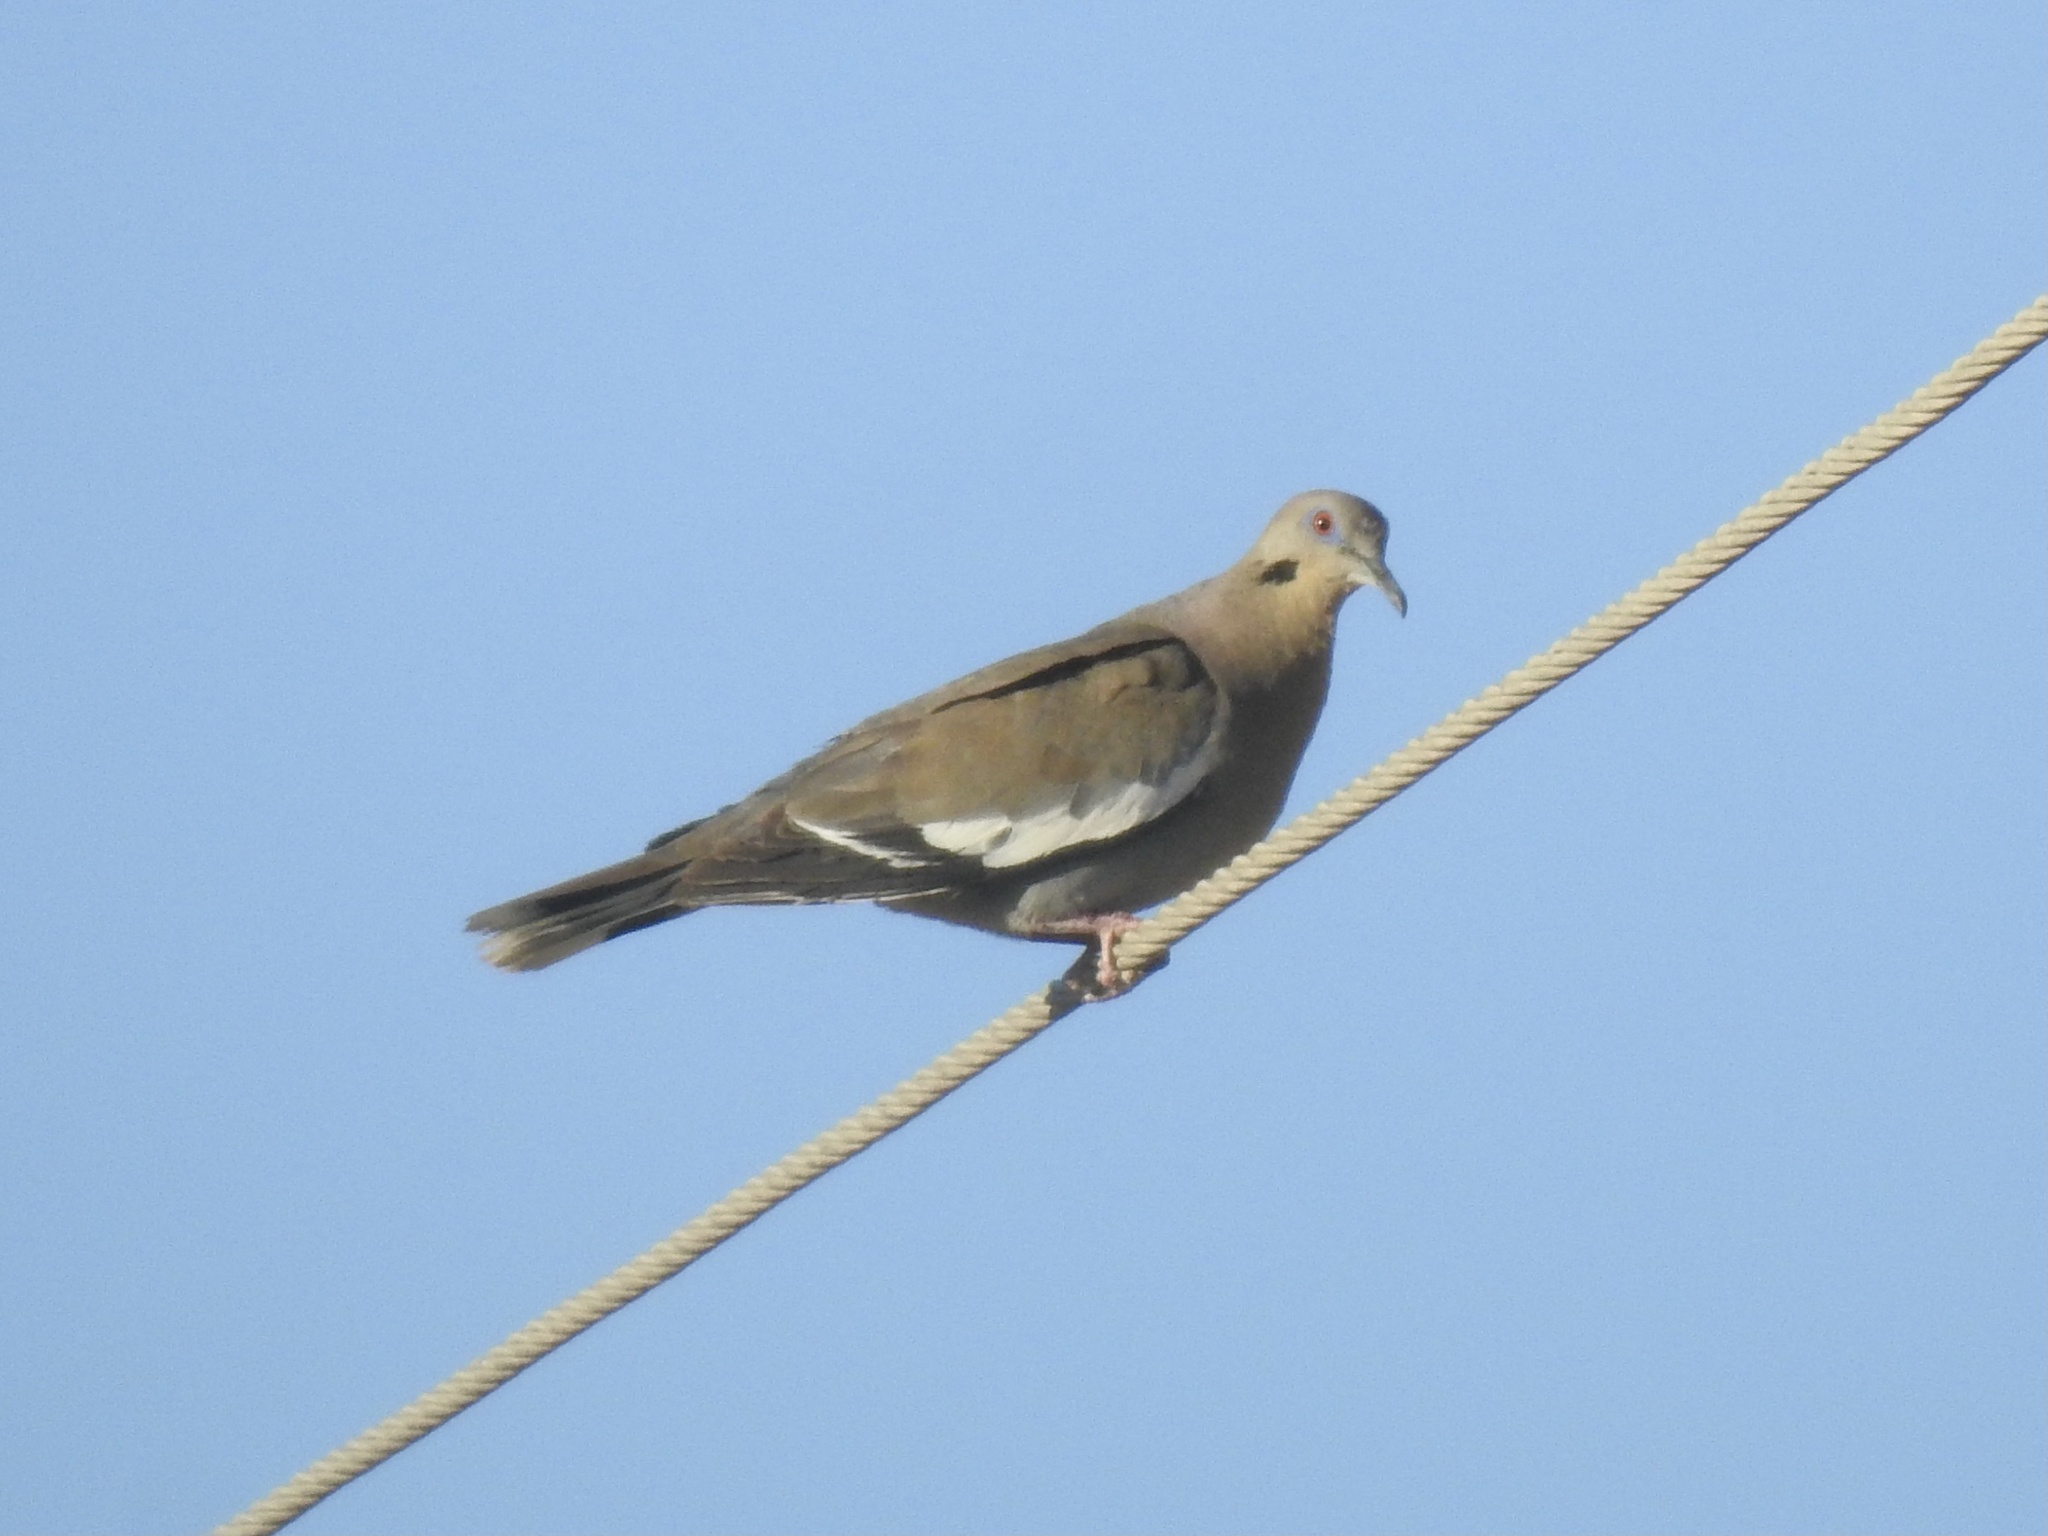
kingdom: Animalia
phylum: Chordata
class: Aves
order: Columbiformes
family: Columbidae
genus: Zenaida
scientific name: Zenaida asiatica
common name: White-winged dove
